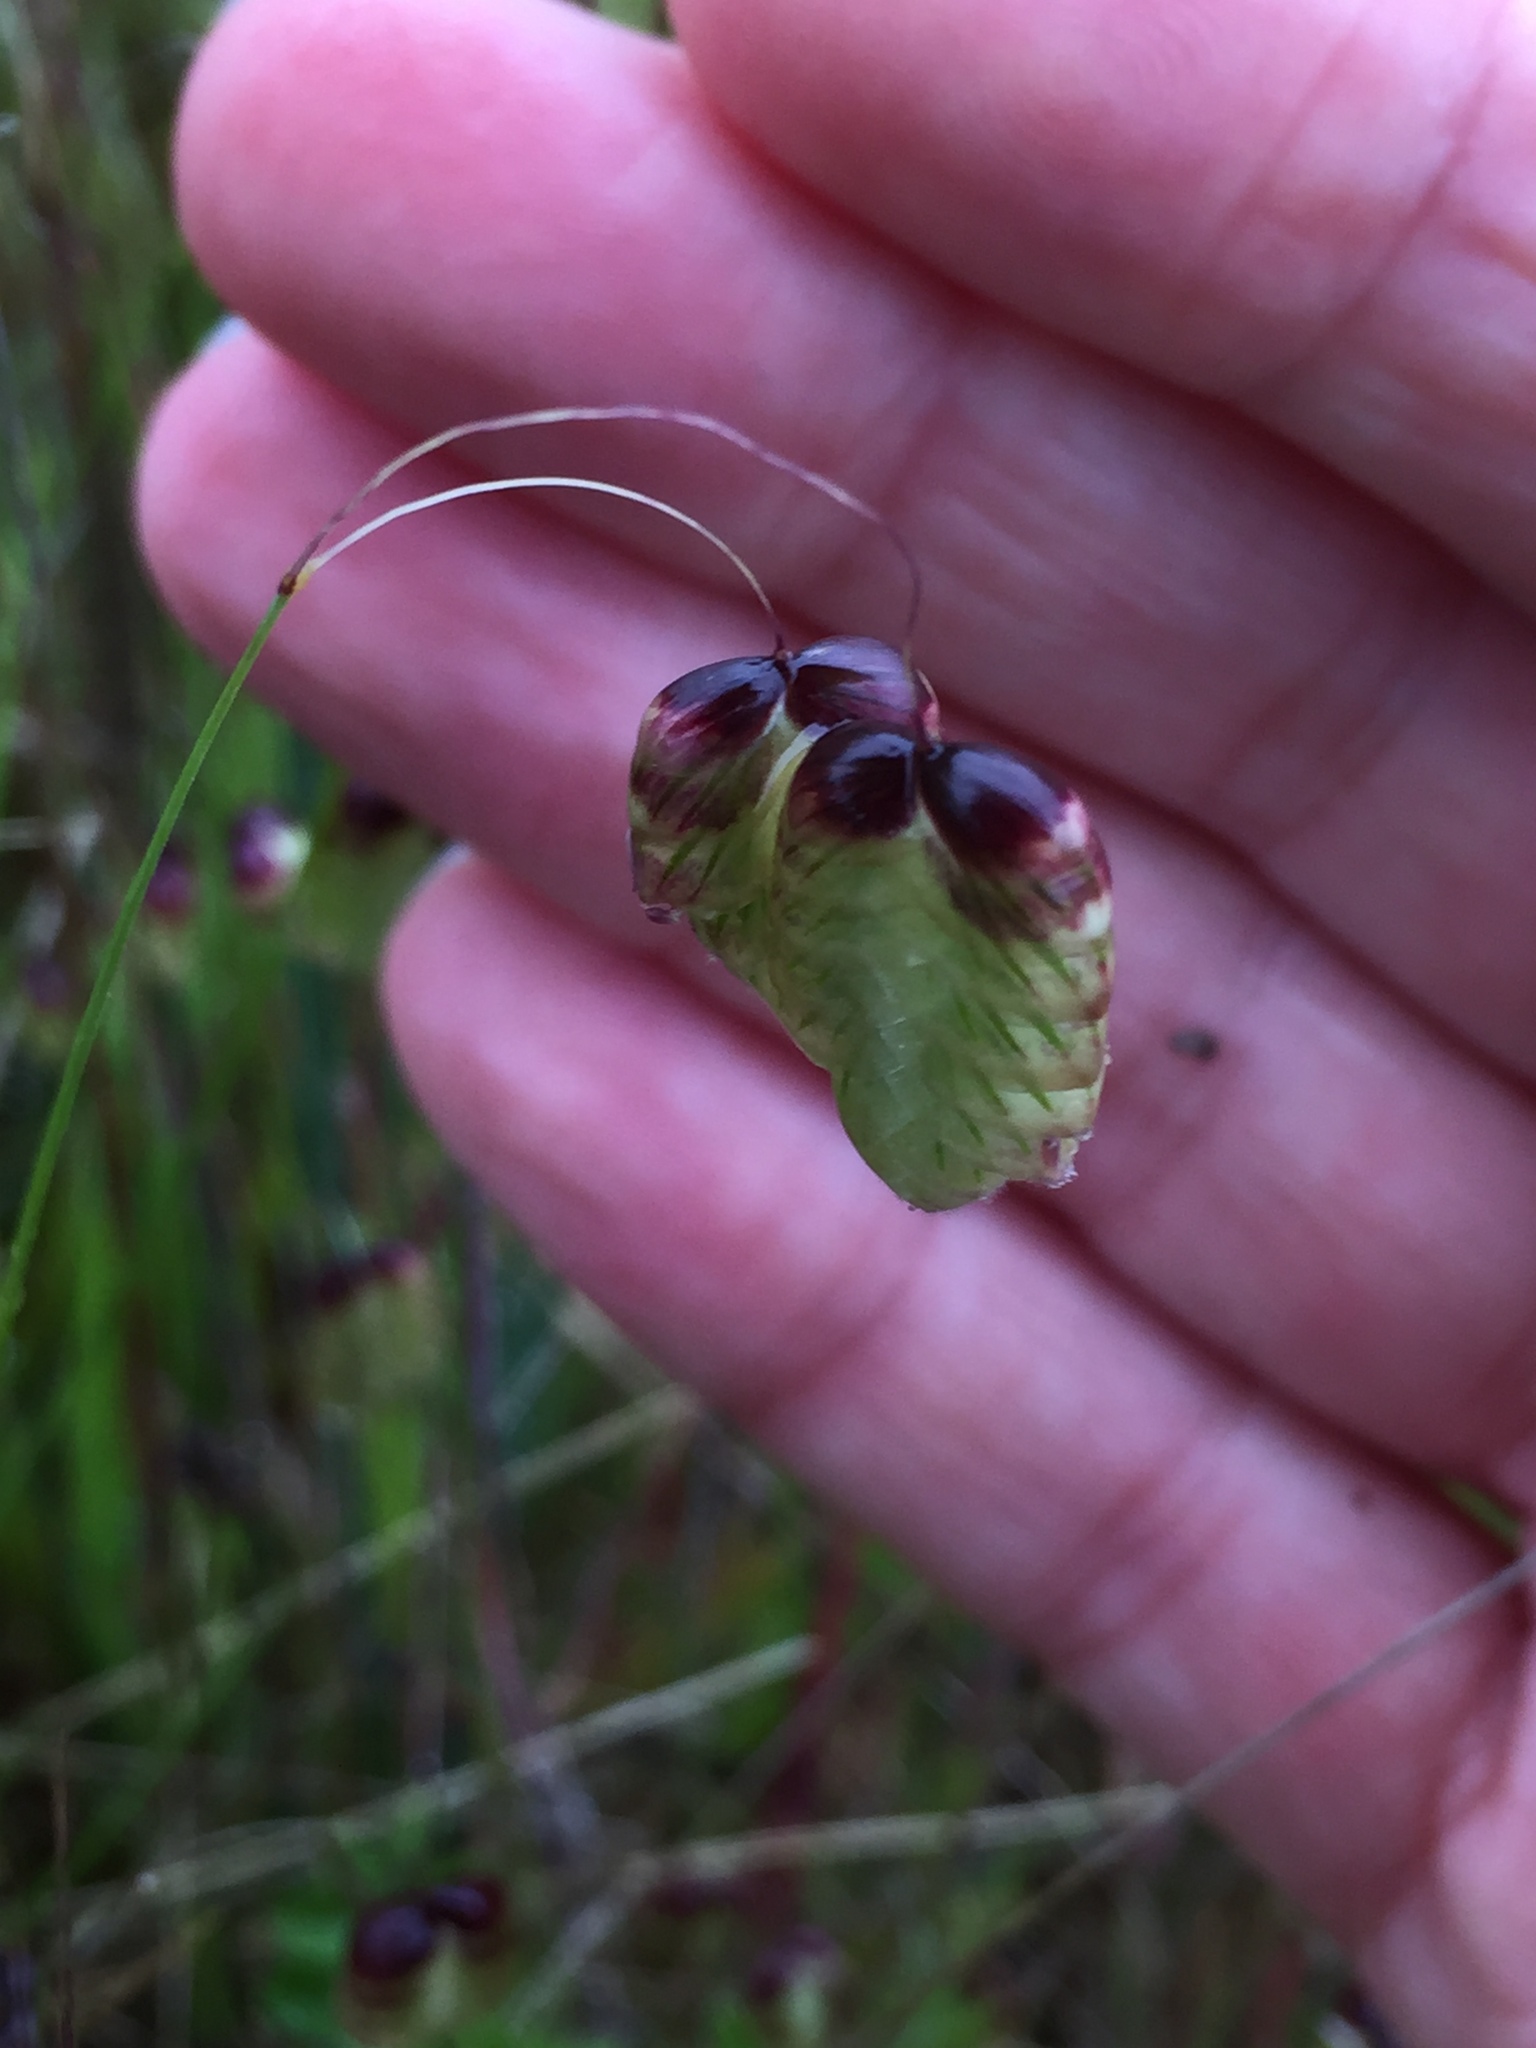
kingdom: Plantae
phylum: Tracheophyta
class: Liliopsida
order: Poales
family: Poaceae
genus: Briza
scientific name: Briza maxima
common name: Big quakinggrass
